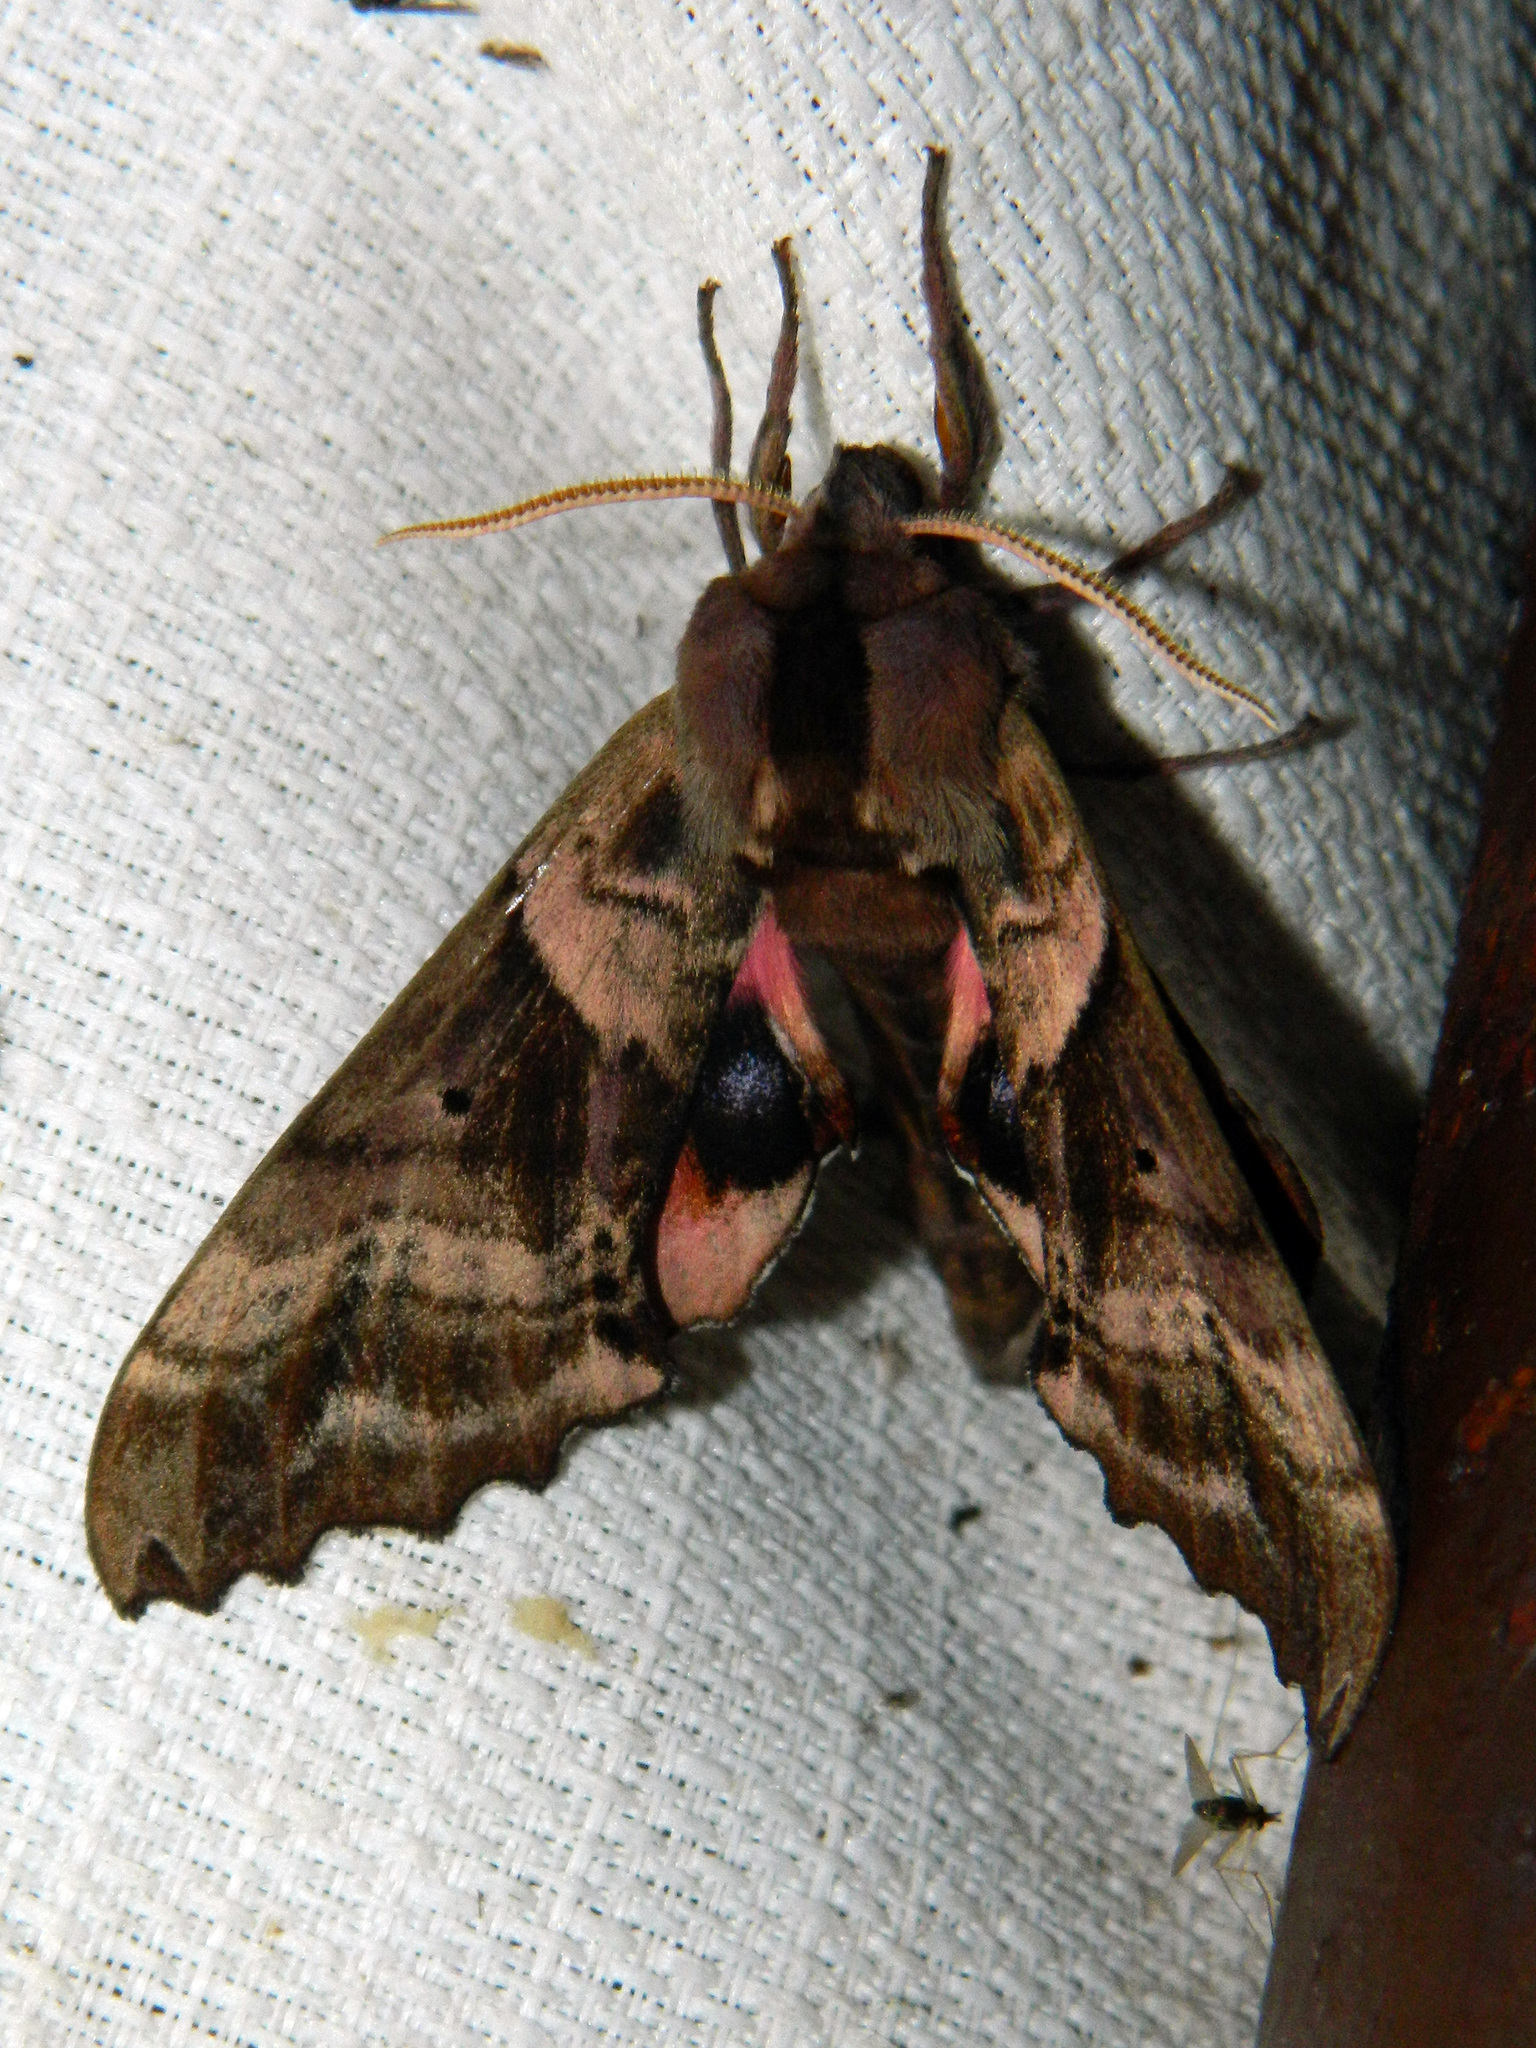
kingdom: Animalia
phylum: Arthropoda
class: Insecta
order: Lepidoptera
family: Sphingidae
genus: Paonias
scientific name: Paonias excaecata
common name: Blind-eyed sphinx
